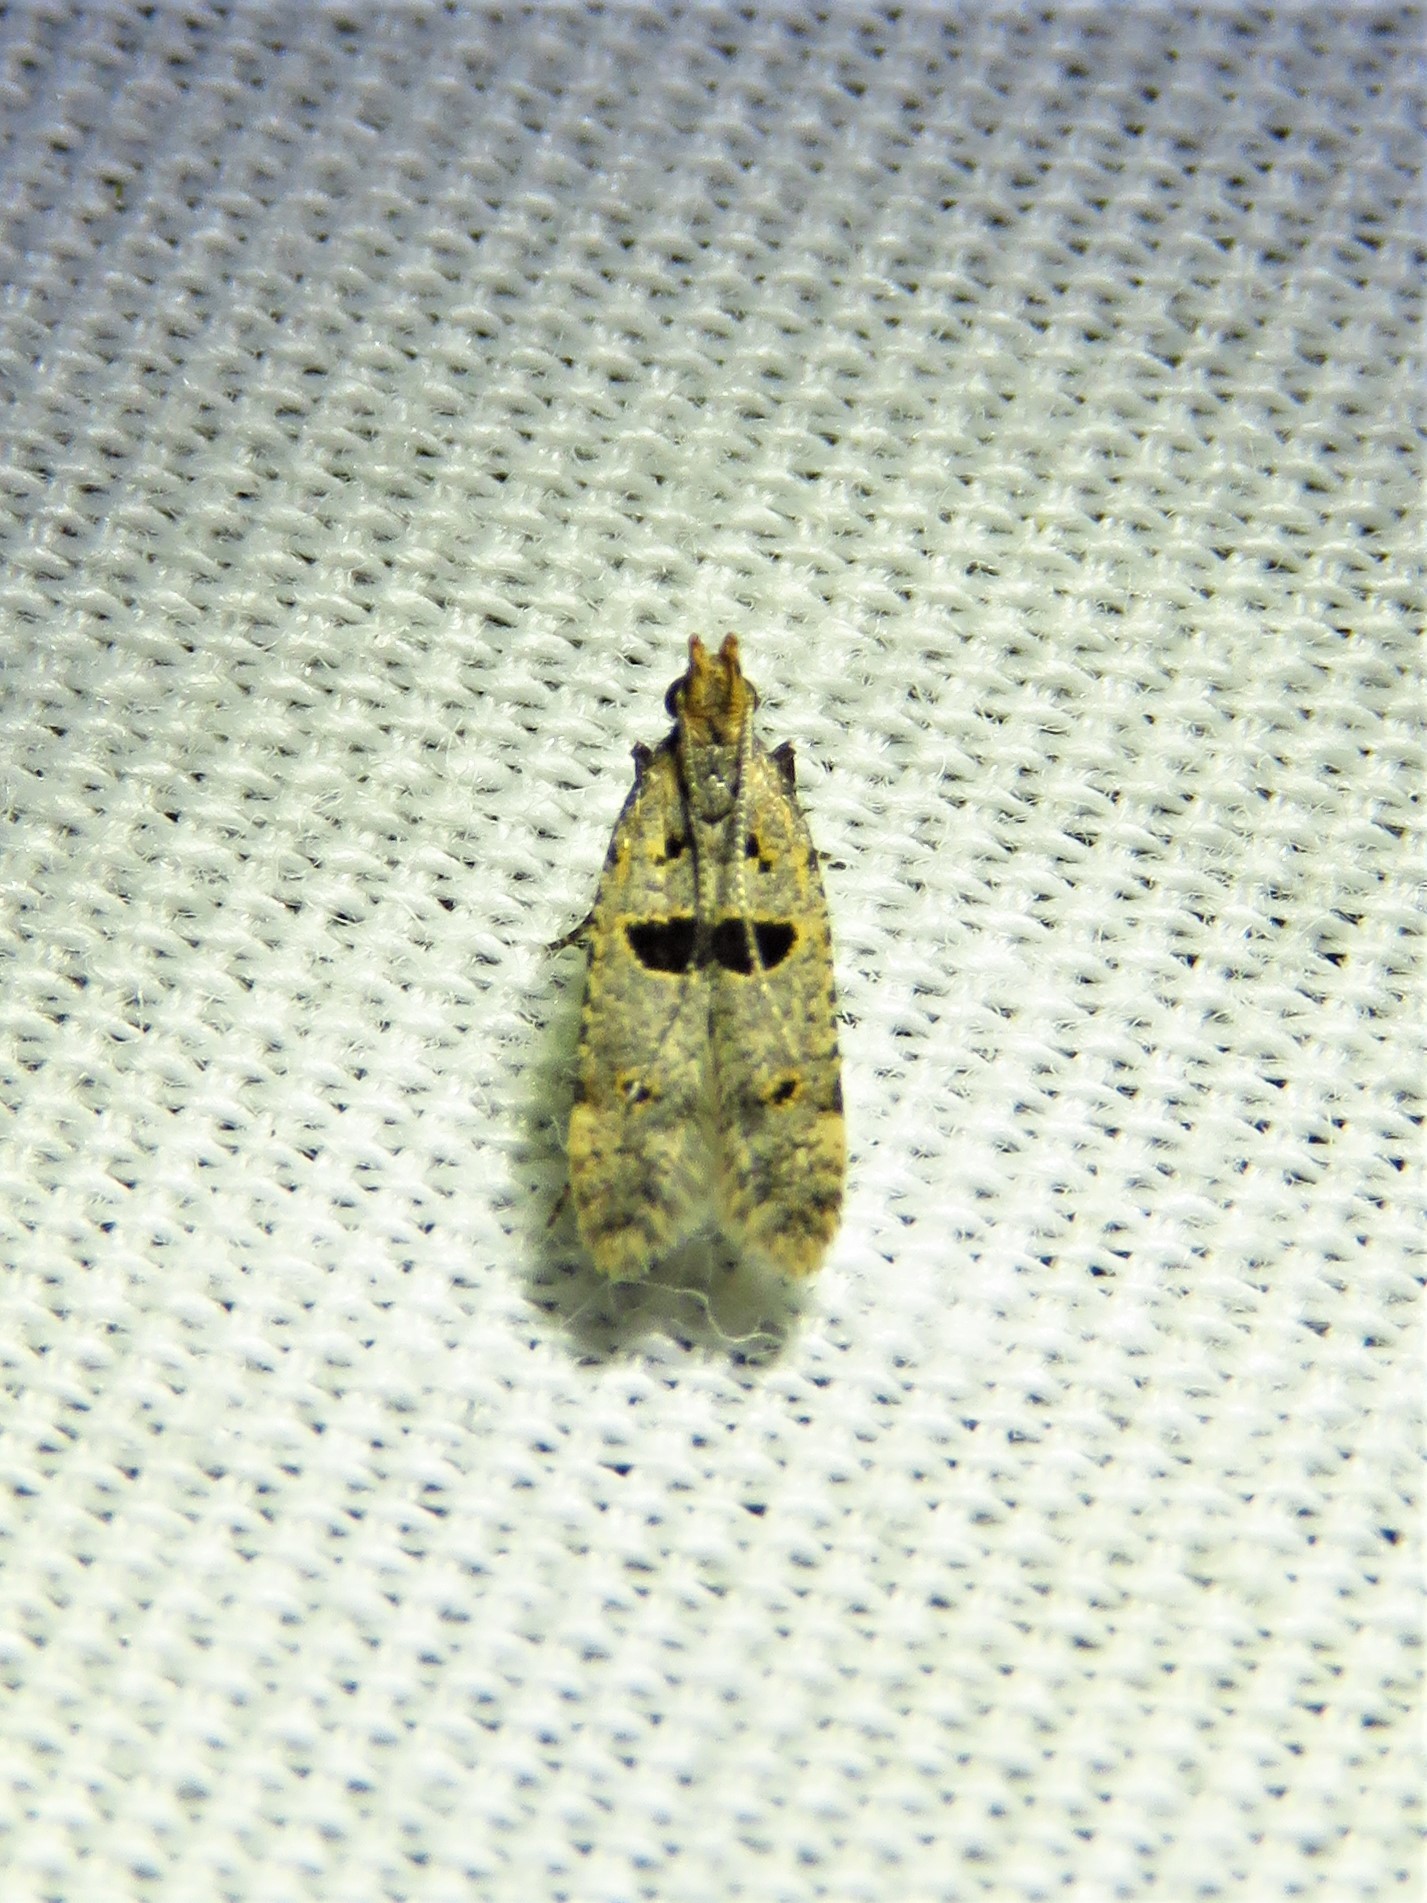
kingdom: Animalia
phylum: Arthropoda
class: Insecta
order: Lepidoptera
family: Gelechiidae
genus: Deltophora
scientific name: Deltophora glandiferella
